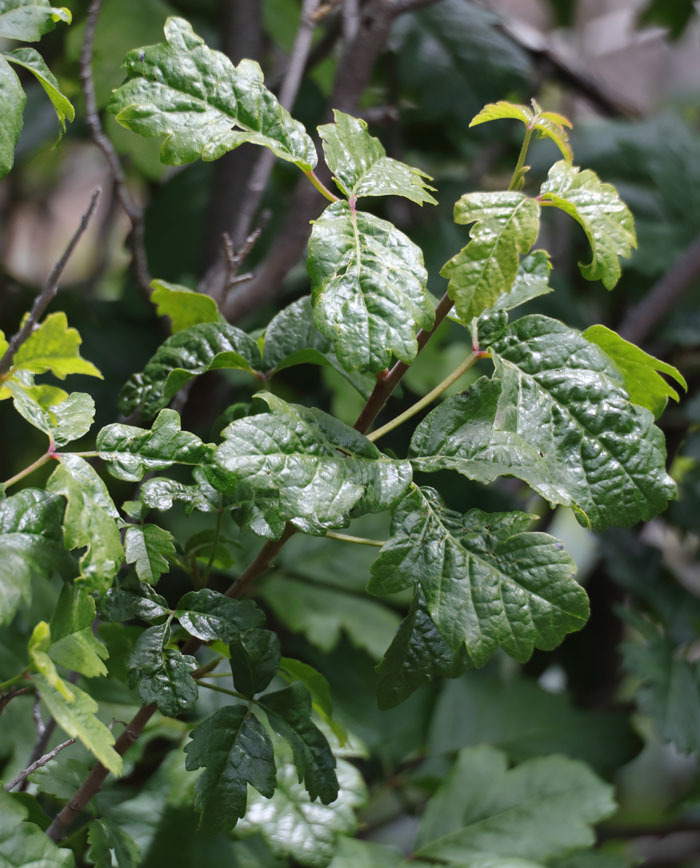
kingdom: Plantae
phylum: Tracheophyta
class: Magnoliopsida
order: Sapindales
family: Anacardiaceae
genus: Toxicodendron
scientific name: Toxicodendron diversilobum
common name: Pacific poison-oak
